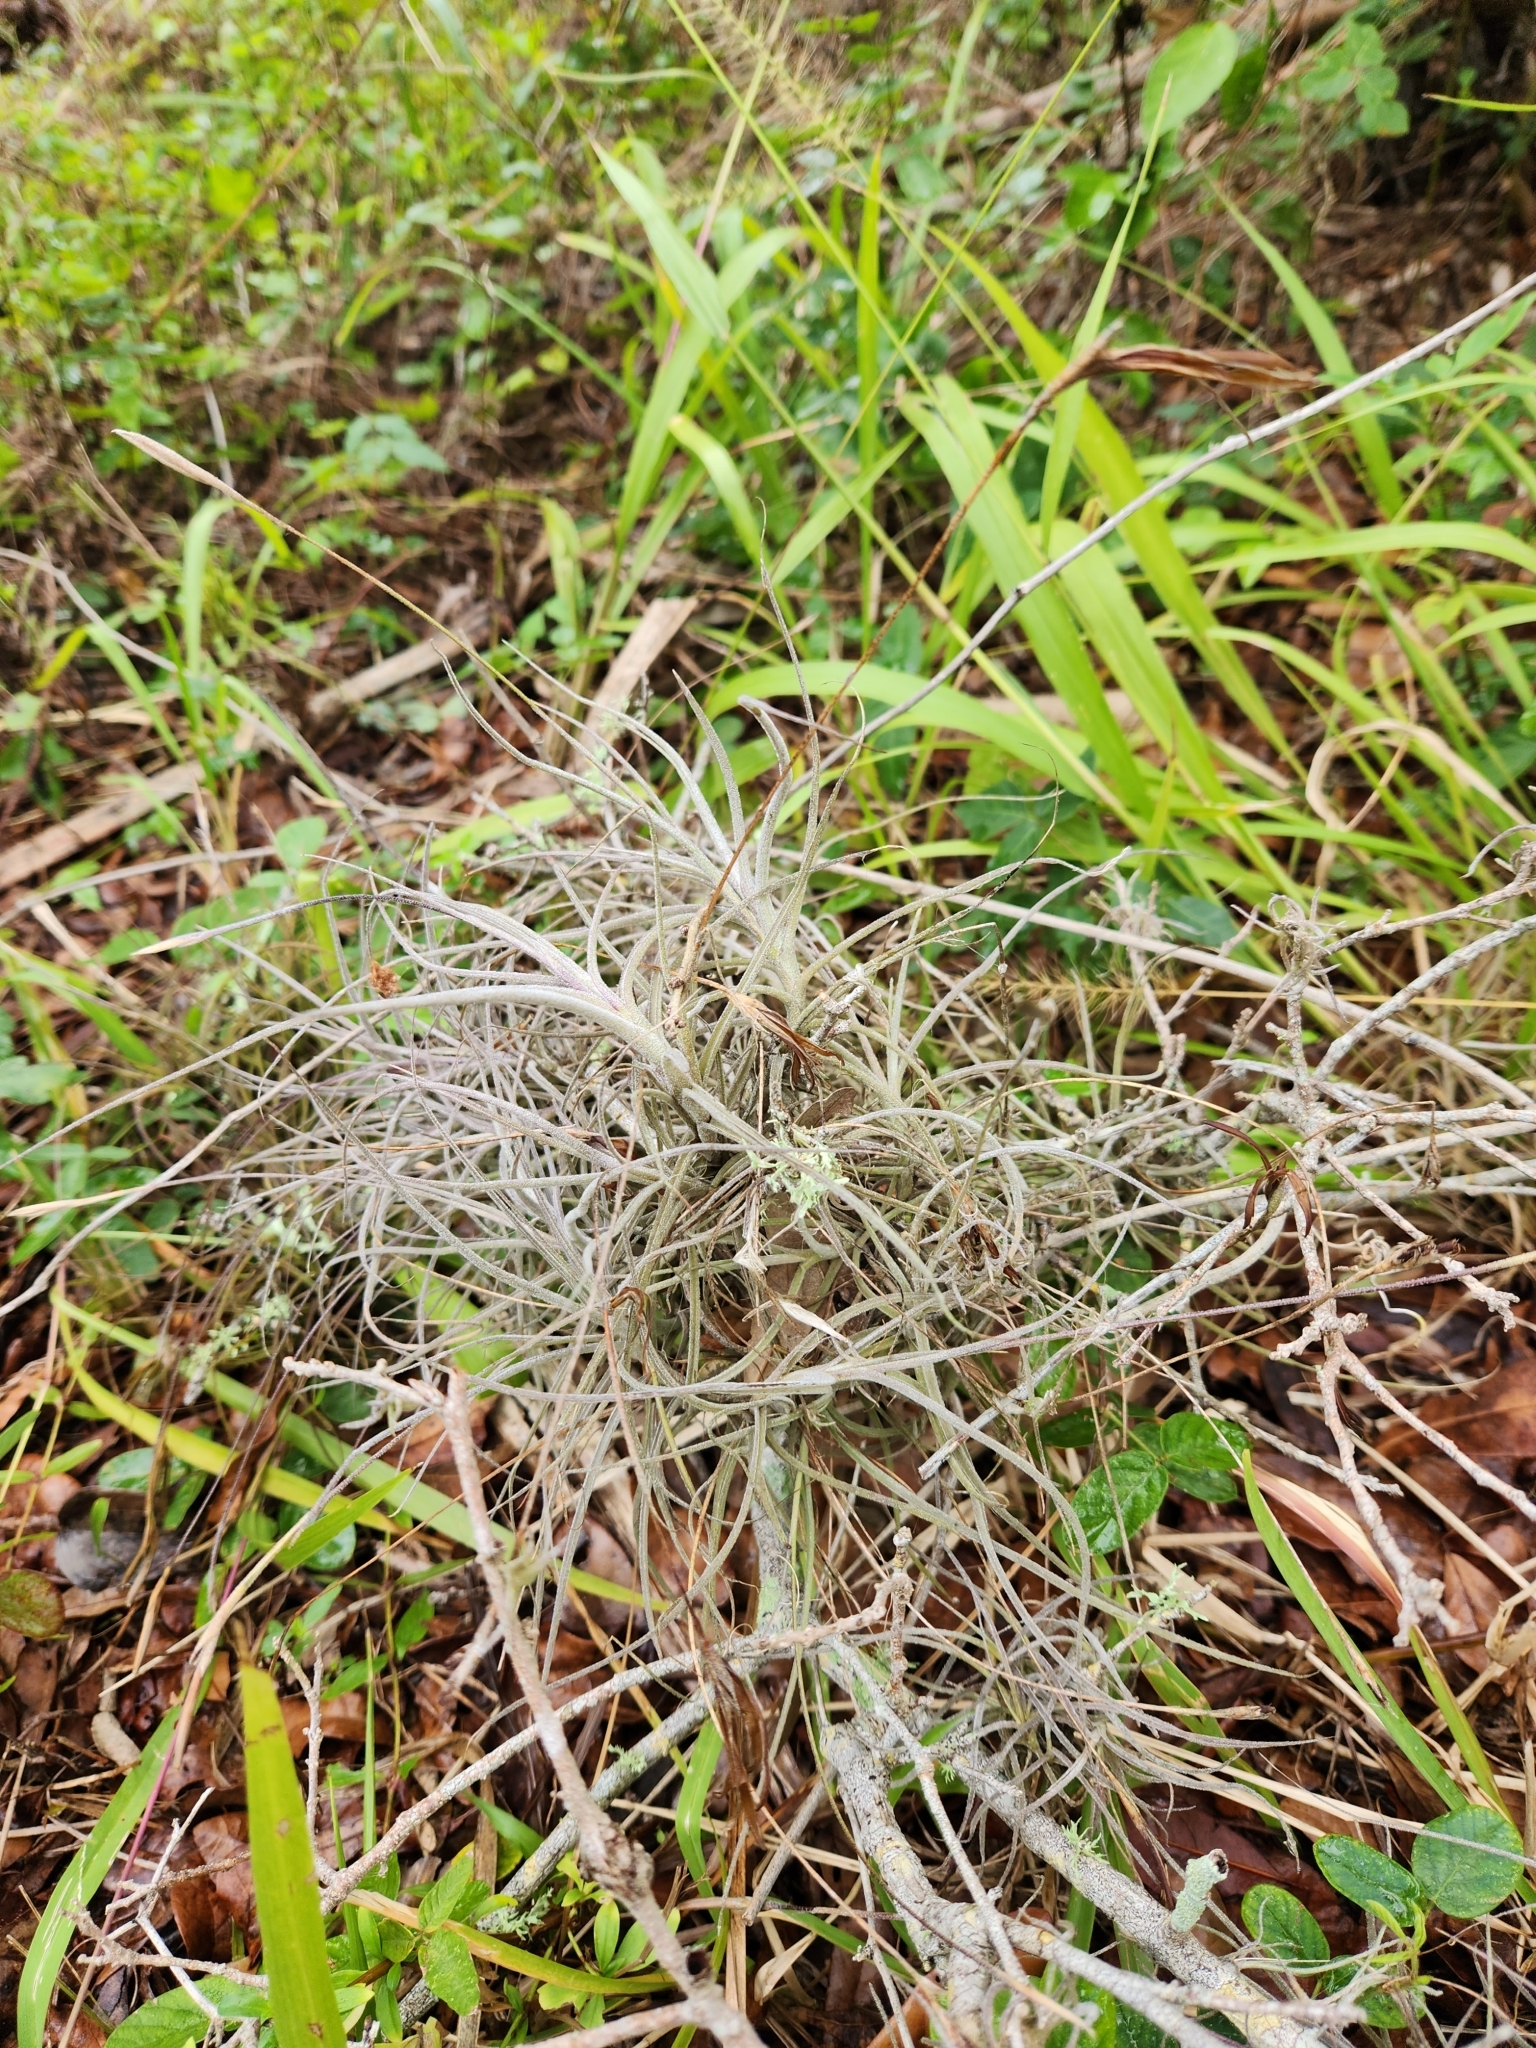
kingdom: Plantae
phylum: Tracheophyta
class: Liliopsida
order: Poales
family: Bromeliaceae
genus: Tillandsia
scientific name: Tillandsia recurvata
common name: Small ballmoss
